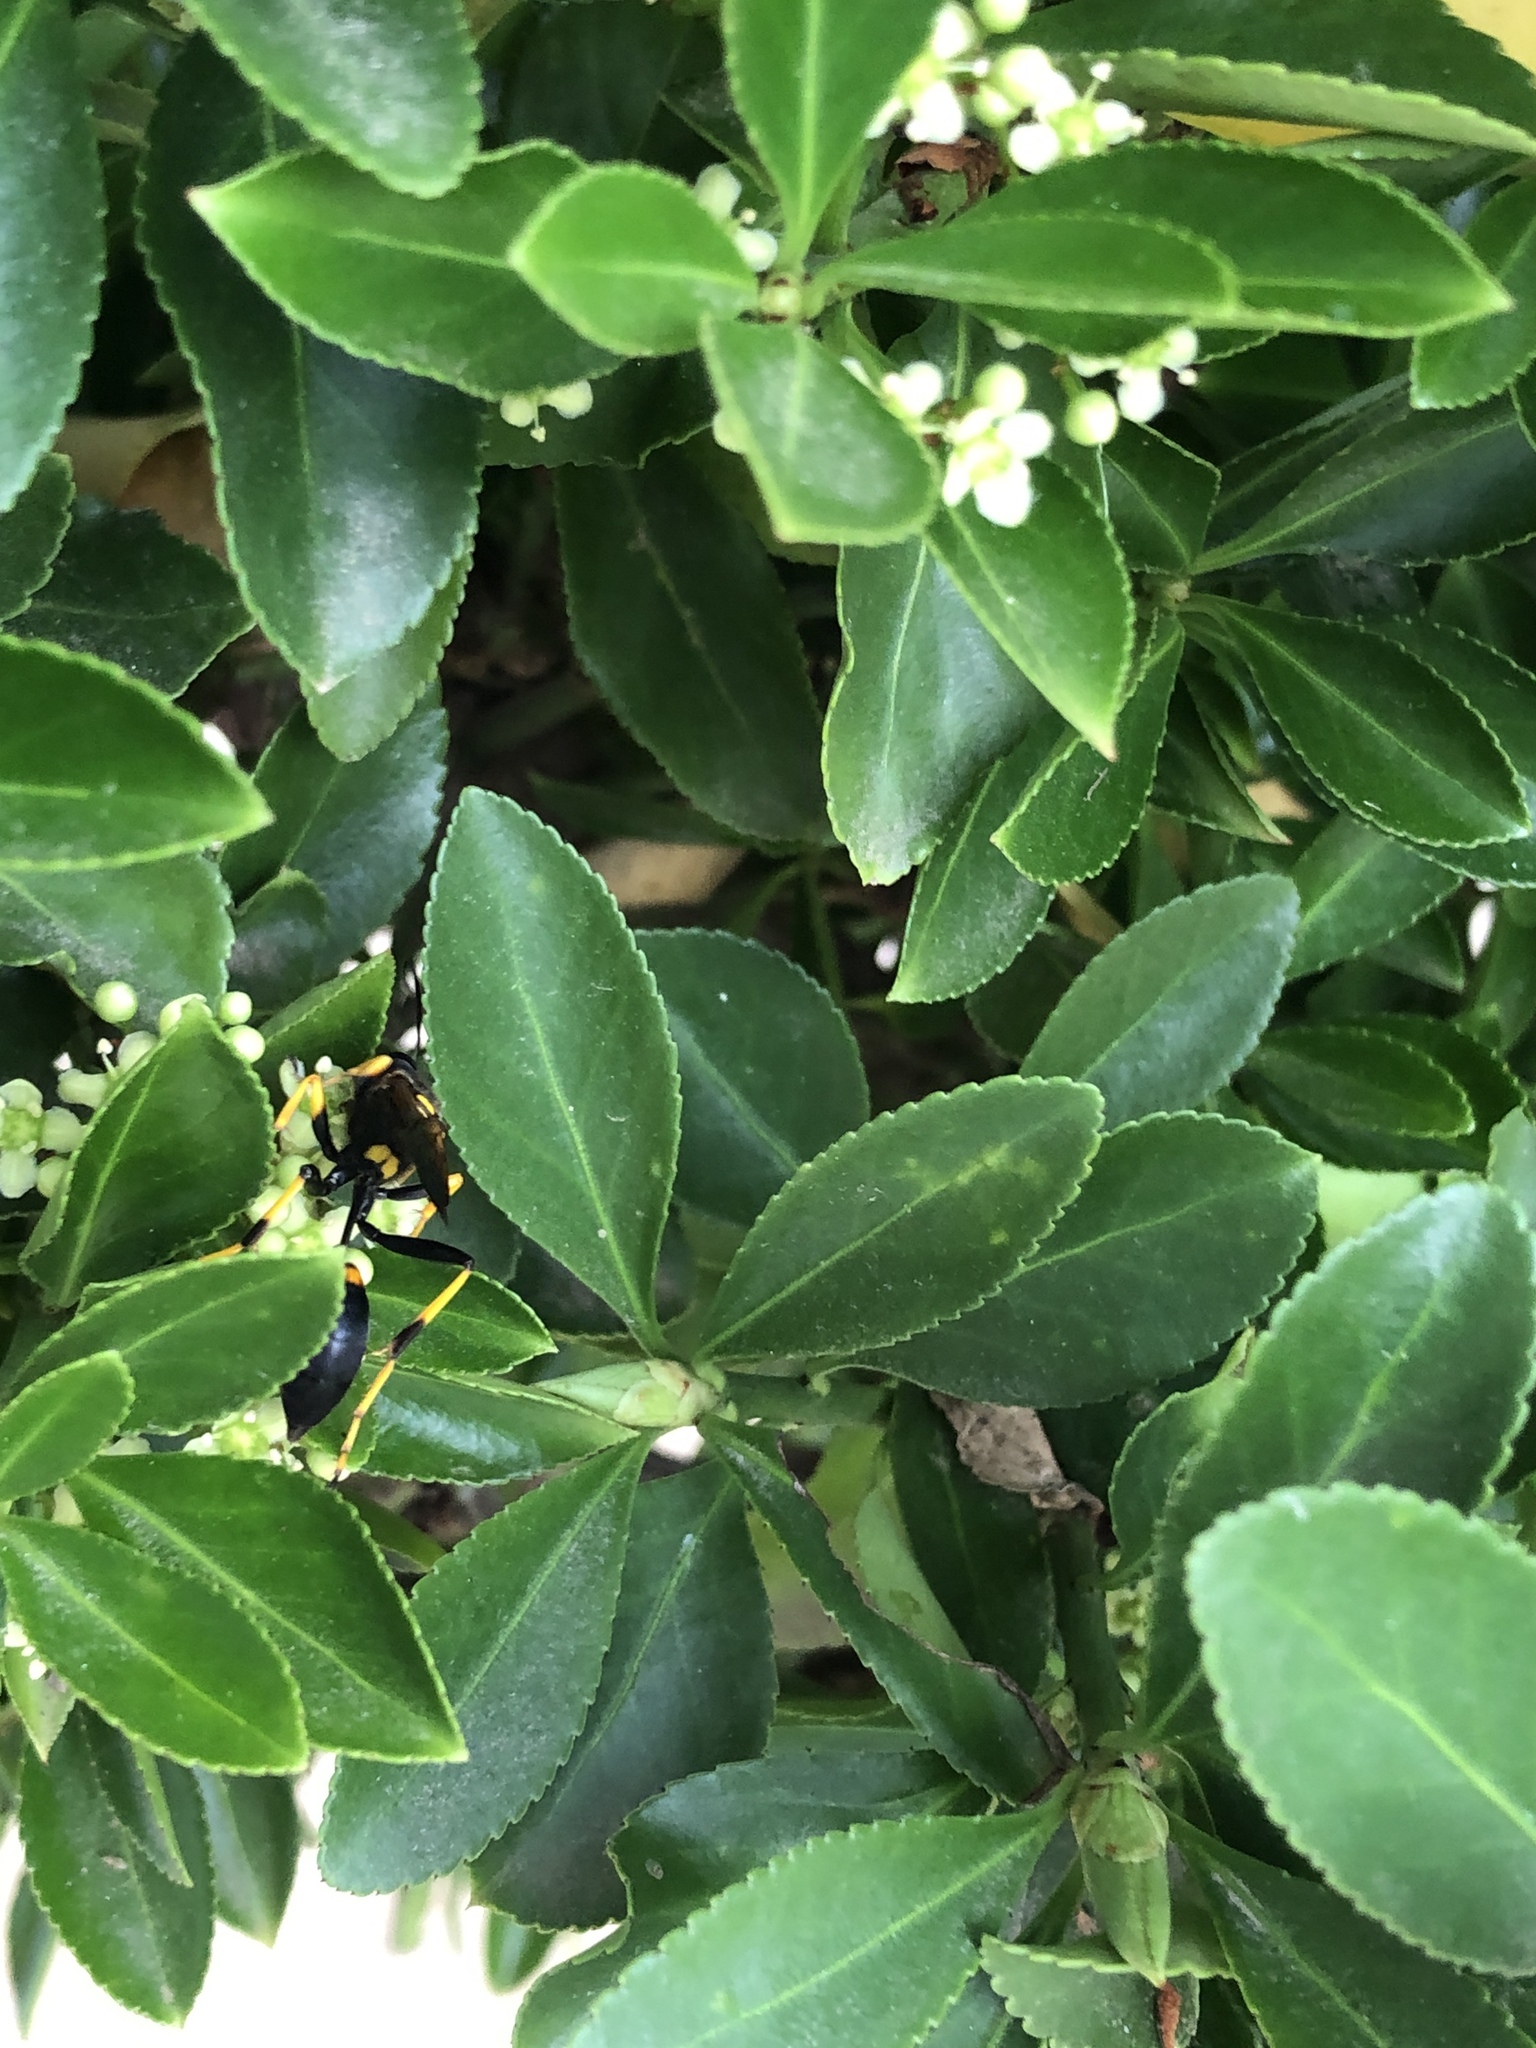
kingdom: Animalia
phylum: Arthropoda
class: Insecta
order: Hymenoptera
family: Sphecidae
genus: Sceliphron
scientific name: Sceliphron caementarium
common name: Mud dauber
